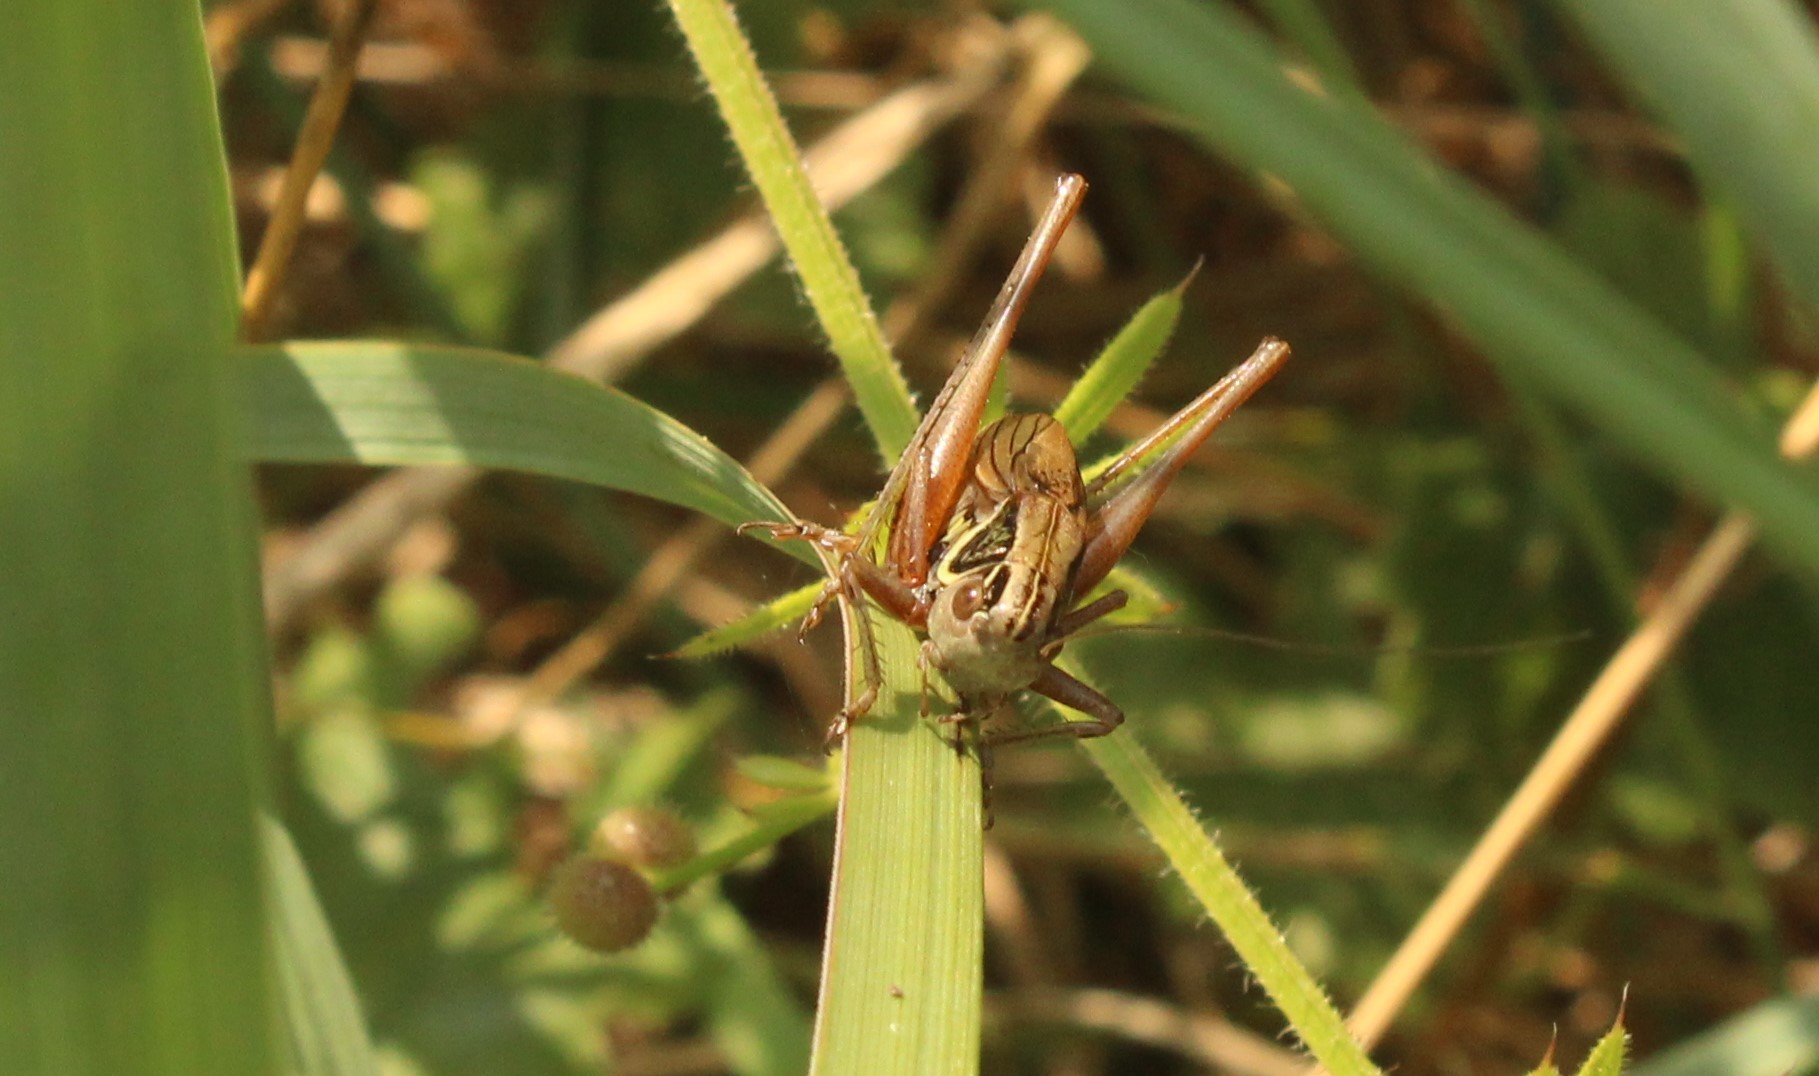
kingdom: Animalia
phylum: Arthropoda
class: Insecta
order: Orthoptera
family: Tettigoniidae
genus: Roeseliana
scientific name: Roeseliana roeselii
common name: Roesel's bush cricket
